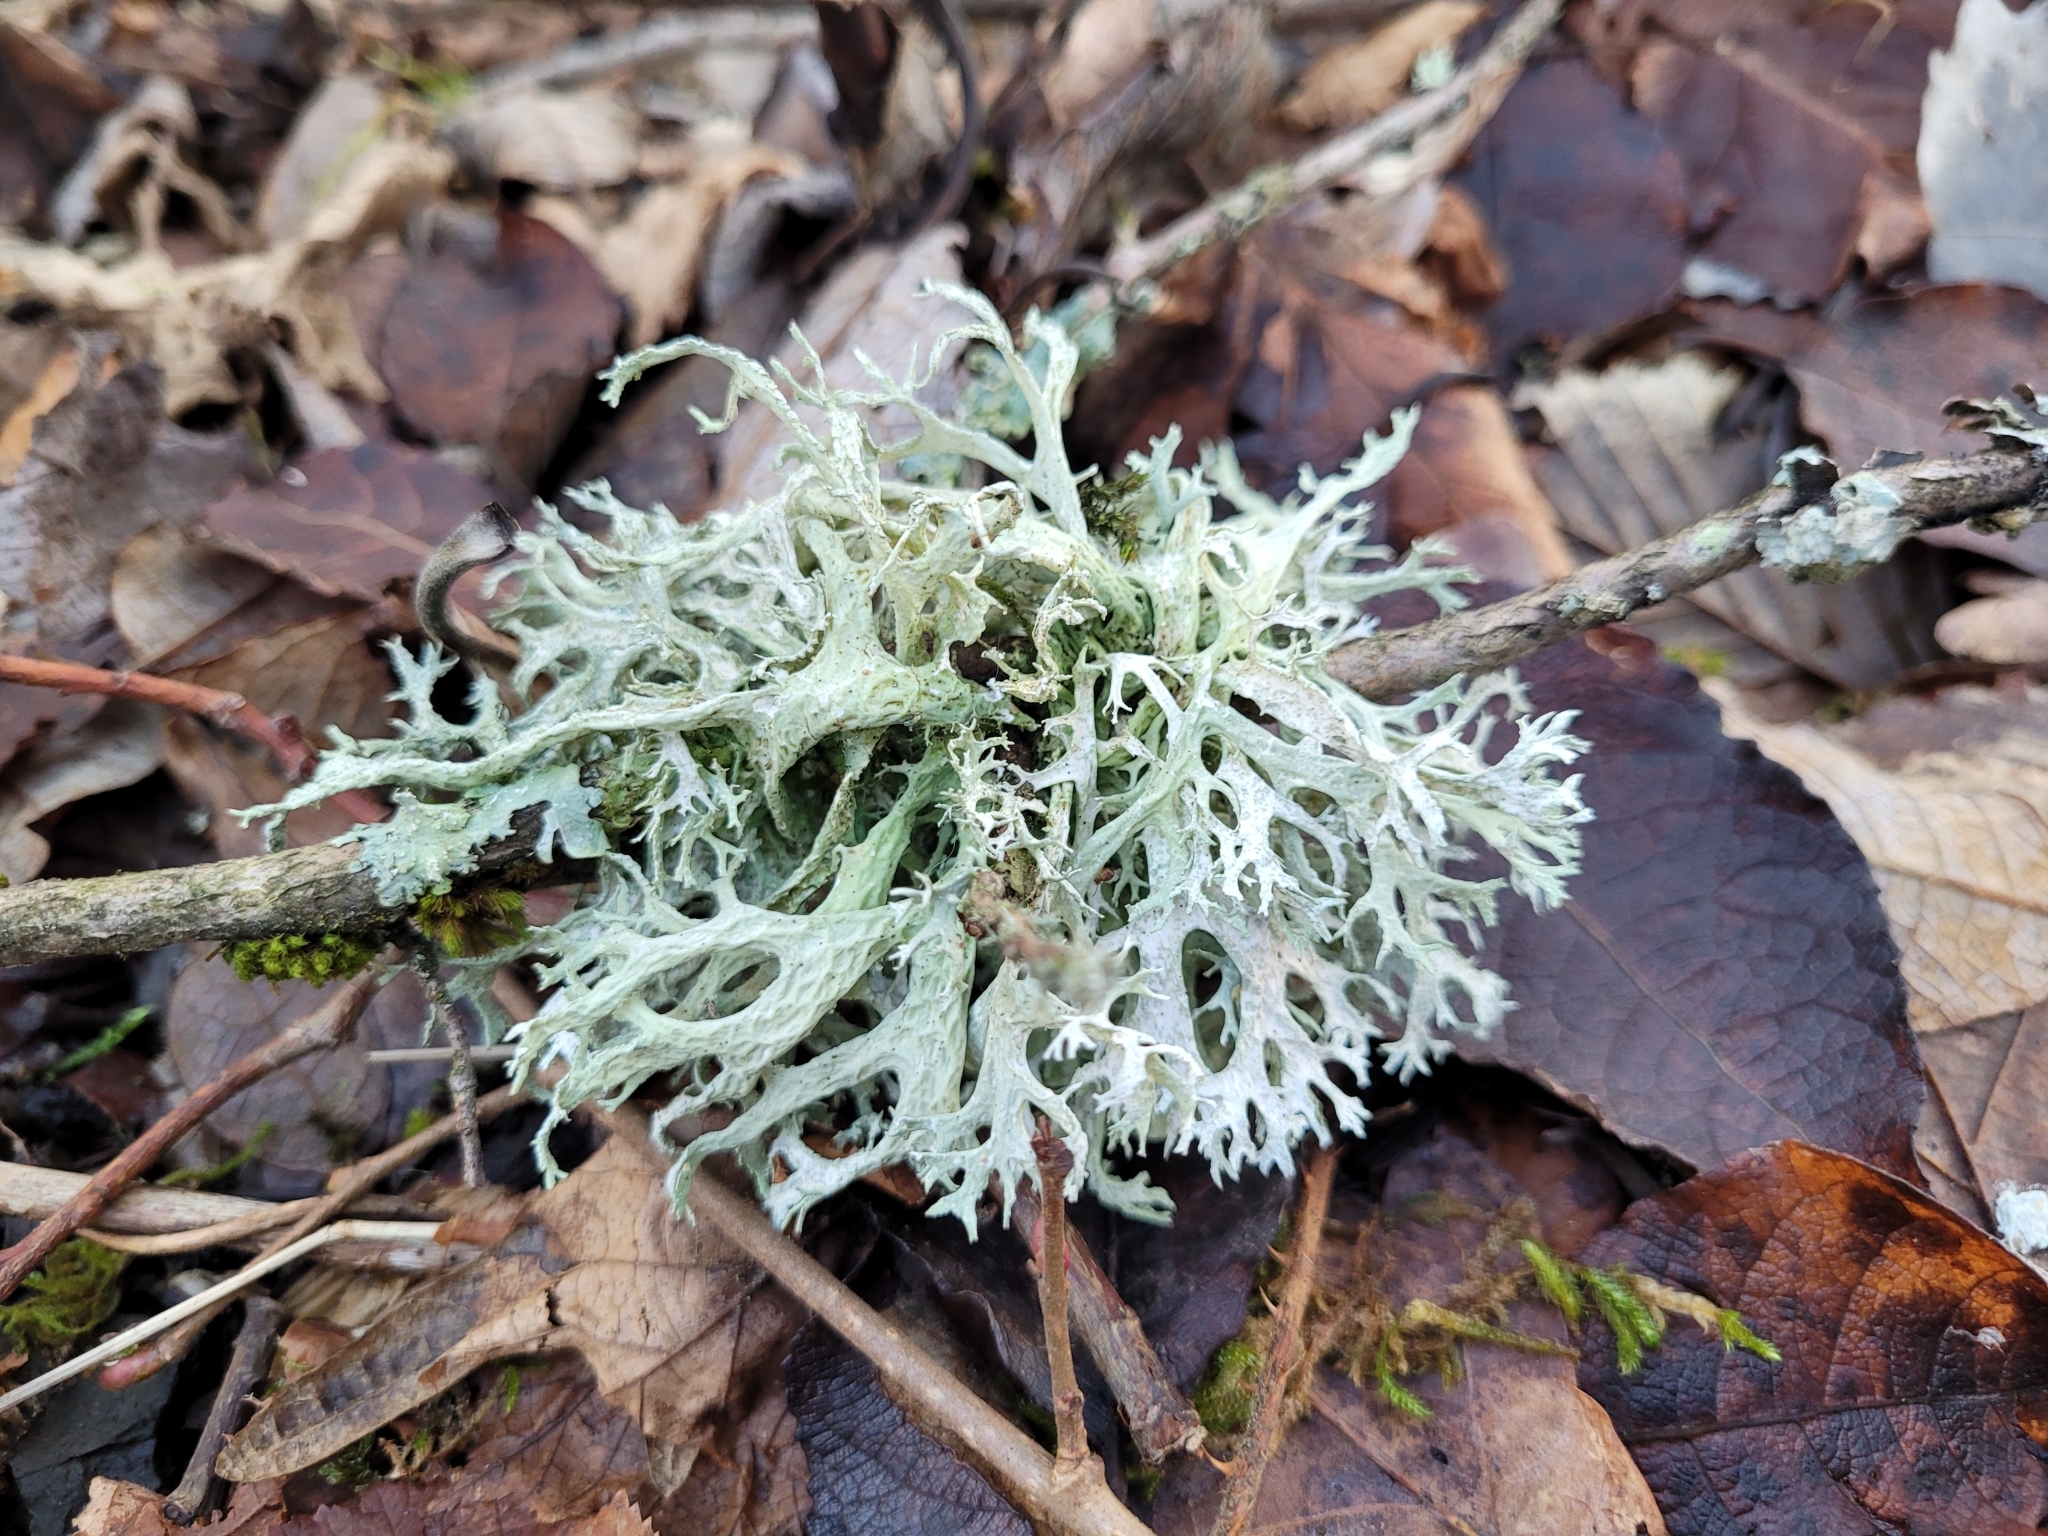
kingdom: Fungi
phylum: Ascomycota
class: Lecanoromycetes
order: Lecanorales
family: Parmeliaceae
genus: Evernia
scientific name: Evernia prunastri
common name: Oak moss
